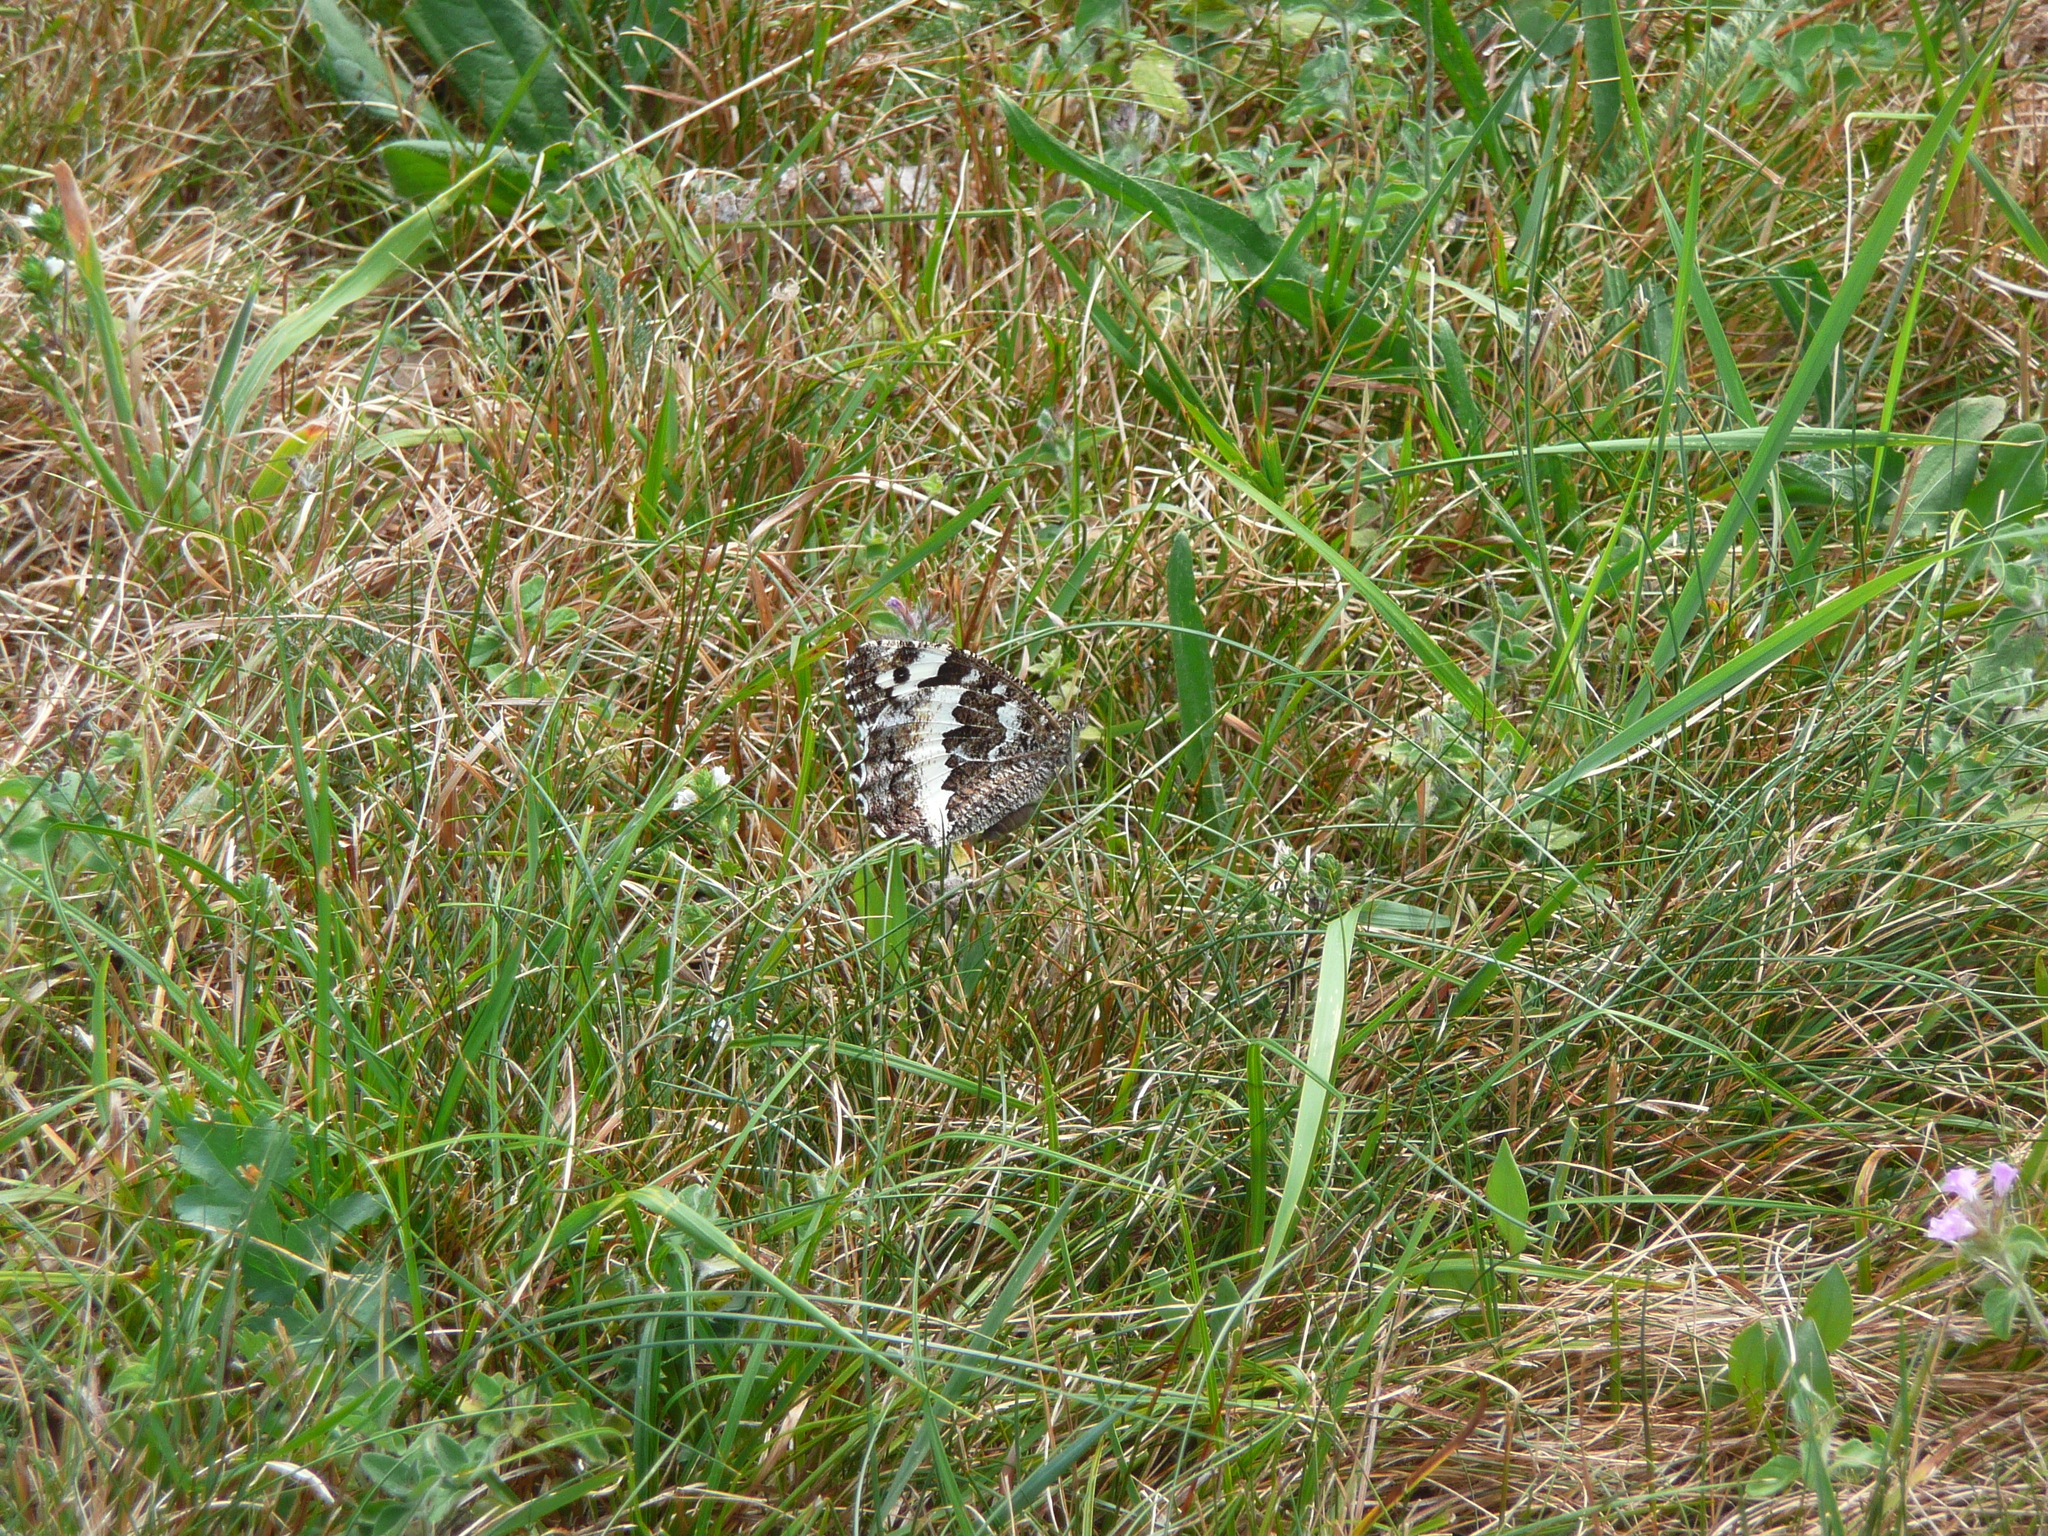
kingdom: Animalia
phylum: Arthropoda
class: Insecta
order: Lepidoptera
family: Lycaenidae
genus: Loweia
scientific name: Loweia tityrus
